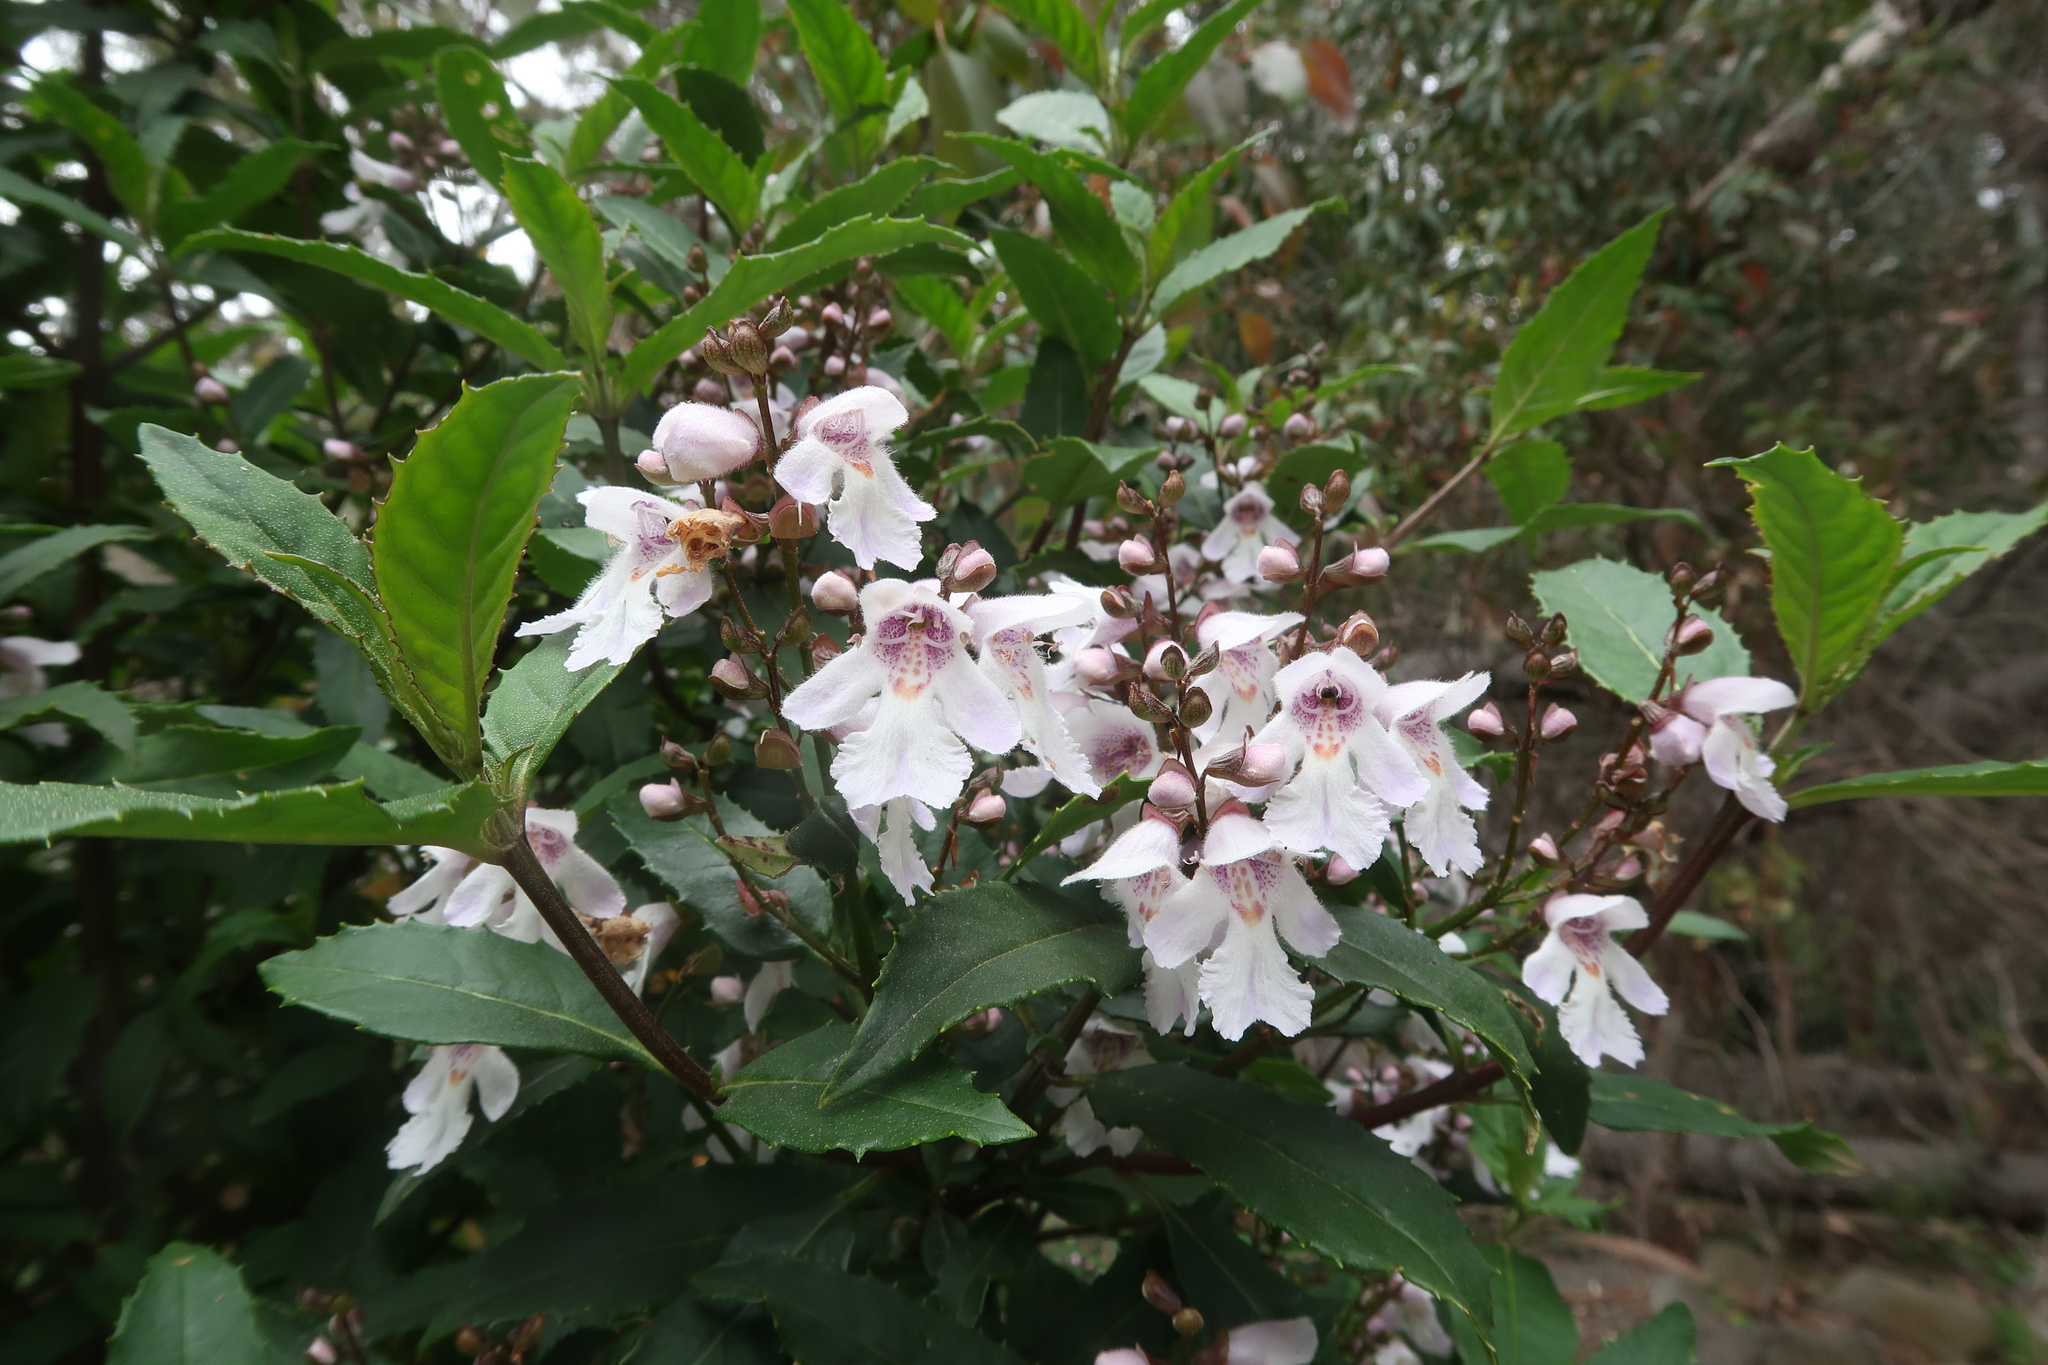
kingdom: Plantae
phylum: Tracheophyta
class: Magnoliopsida
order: Lamiales
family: Lamiaceae
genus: Prostanthera
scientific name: Prostanthera lasianthos
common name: Mountain-lilac
